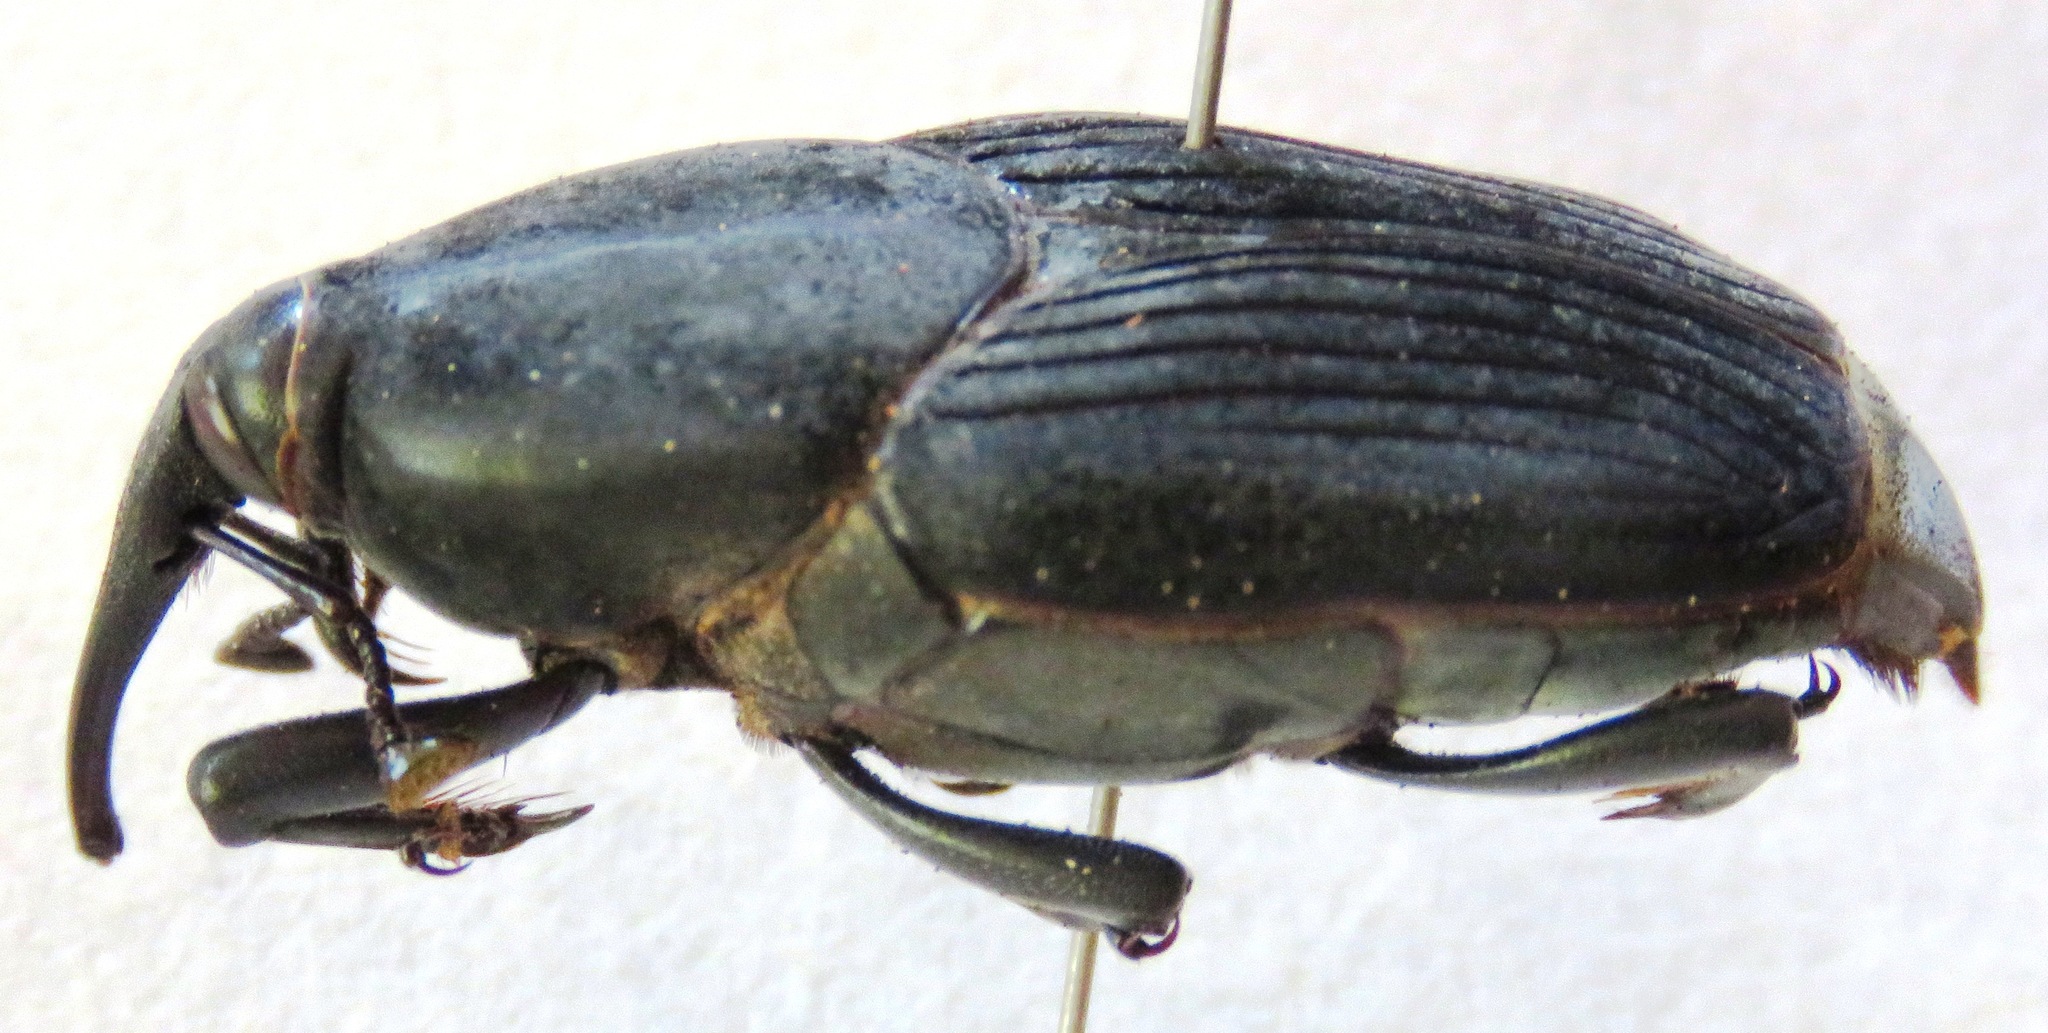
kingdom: Animalia
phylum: Arthropoda
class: Insecta
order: Coleoptera
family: Dryophthoridae
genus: Rhynchophorus
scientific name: Rhynchophorus palmarum
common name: Palm weevil
